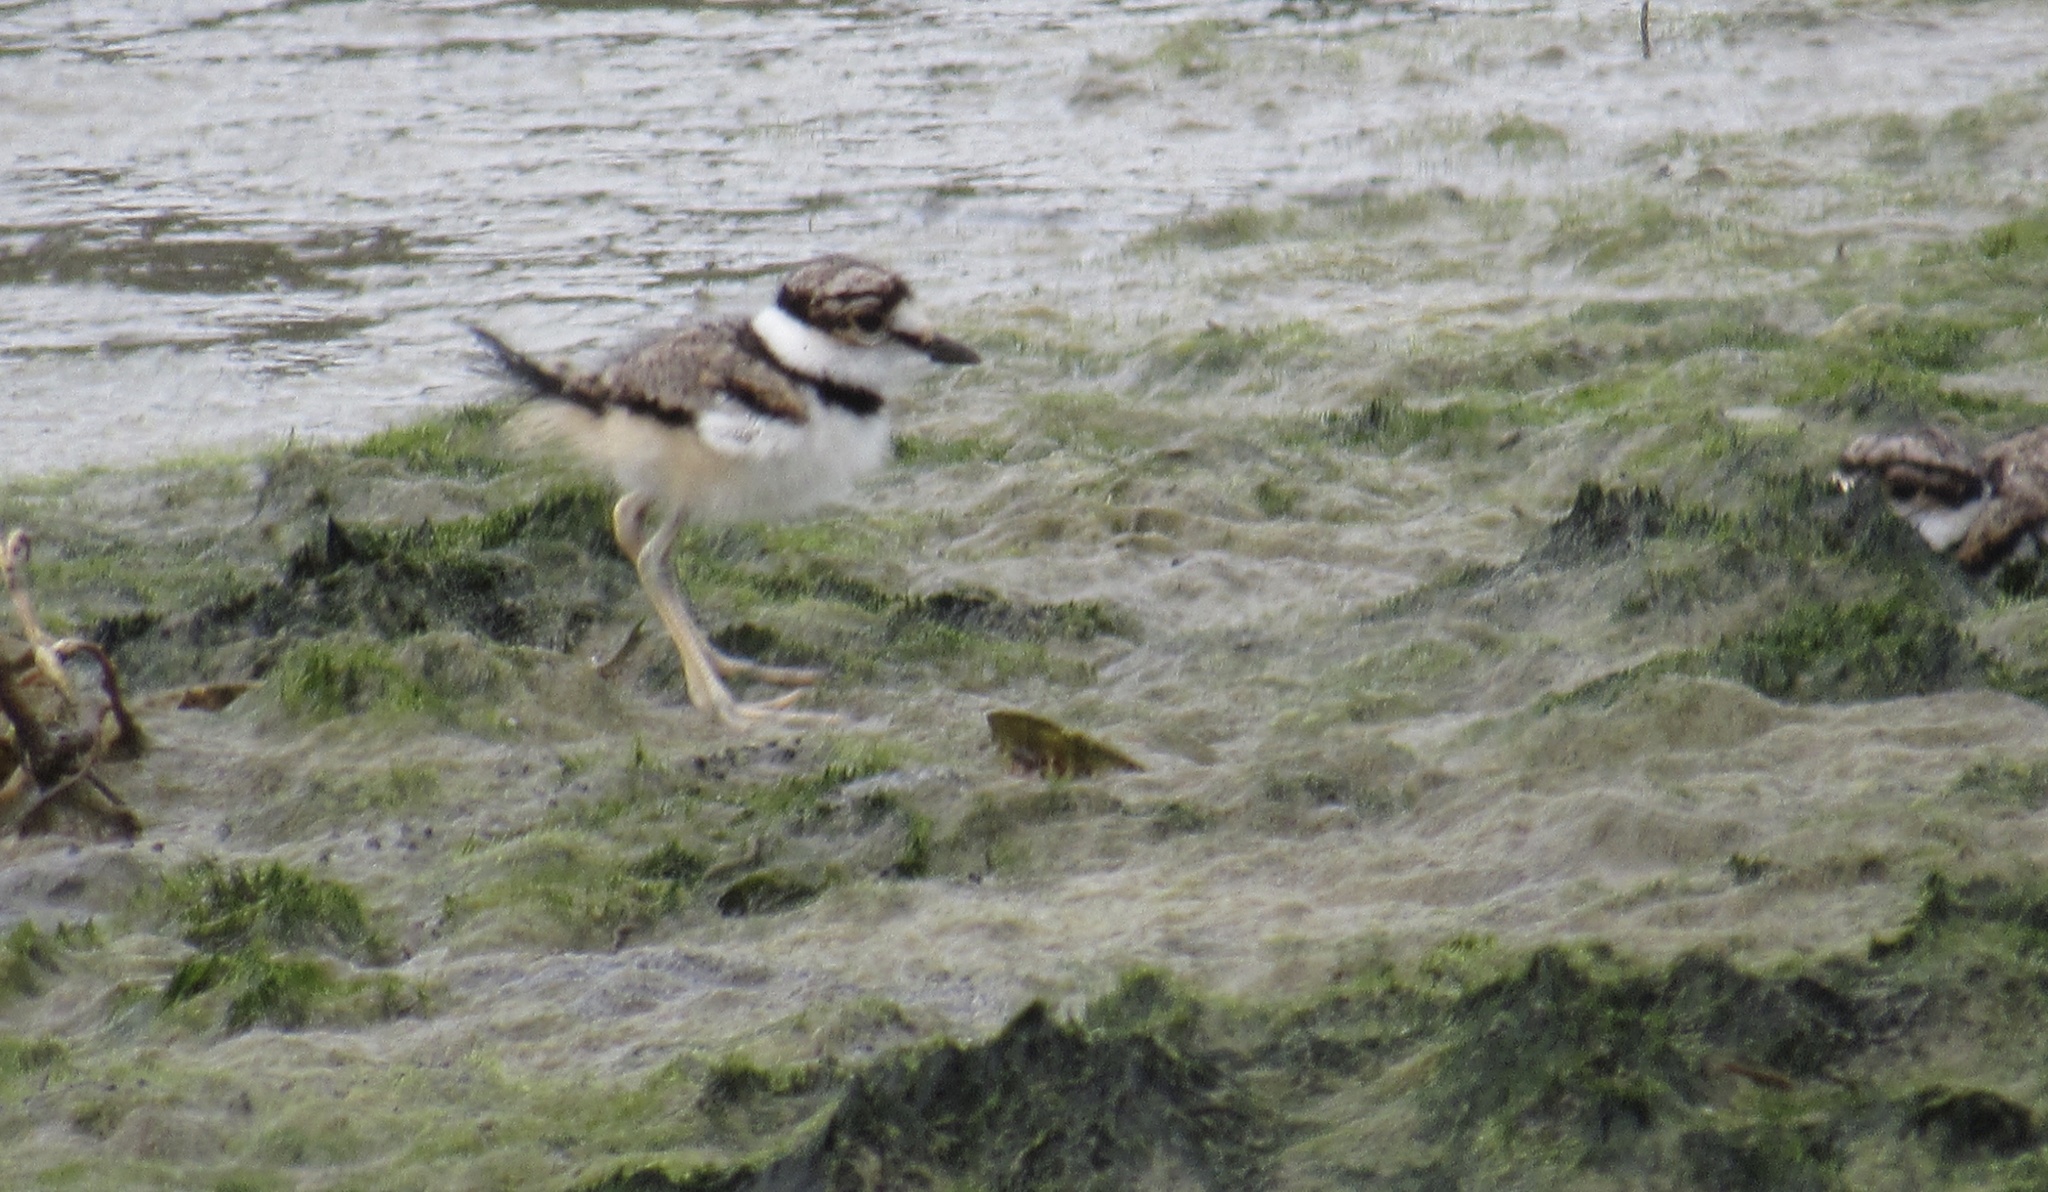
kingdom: Animalia
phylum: Chordata
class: Aves
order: Charadriiformes
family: Charadriidae
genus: Charadrius
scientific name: Charadrius vociferus
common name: Killdeer
